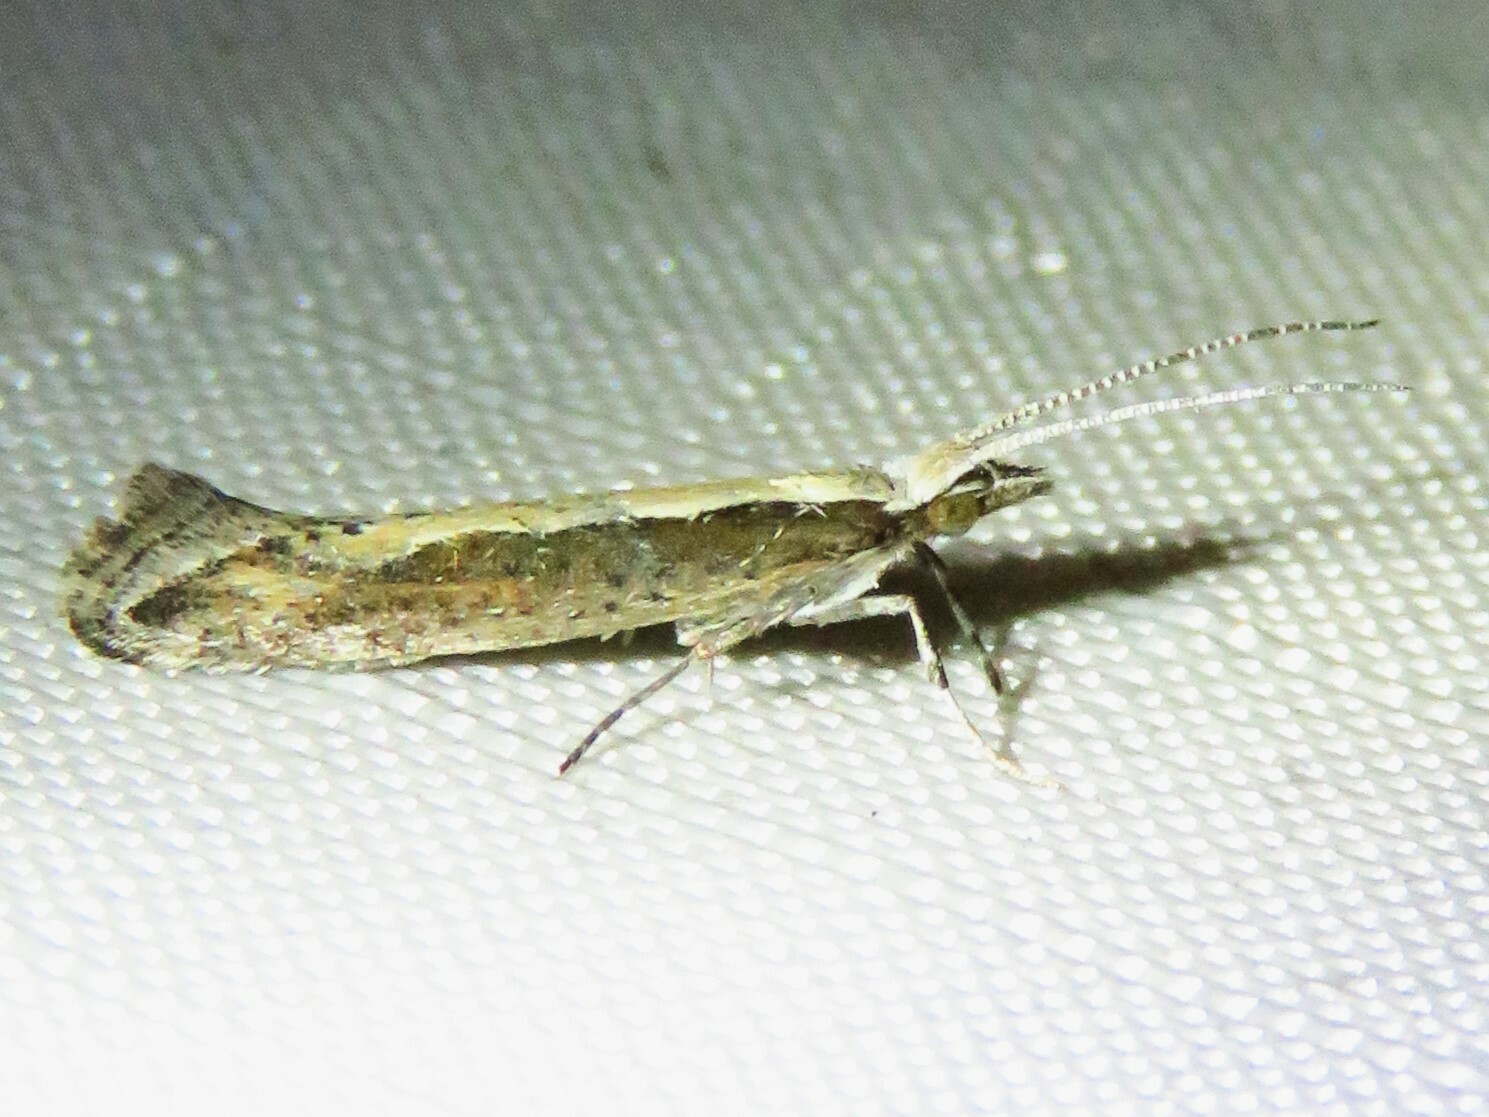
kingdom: Animalia
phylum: Arthropoda
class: Insecta
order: Lepidoptera
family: Plutellidae
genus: Plutella
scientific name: Plutella xylostella
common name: Diamond-back moth
